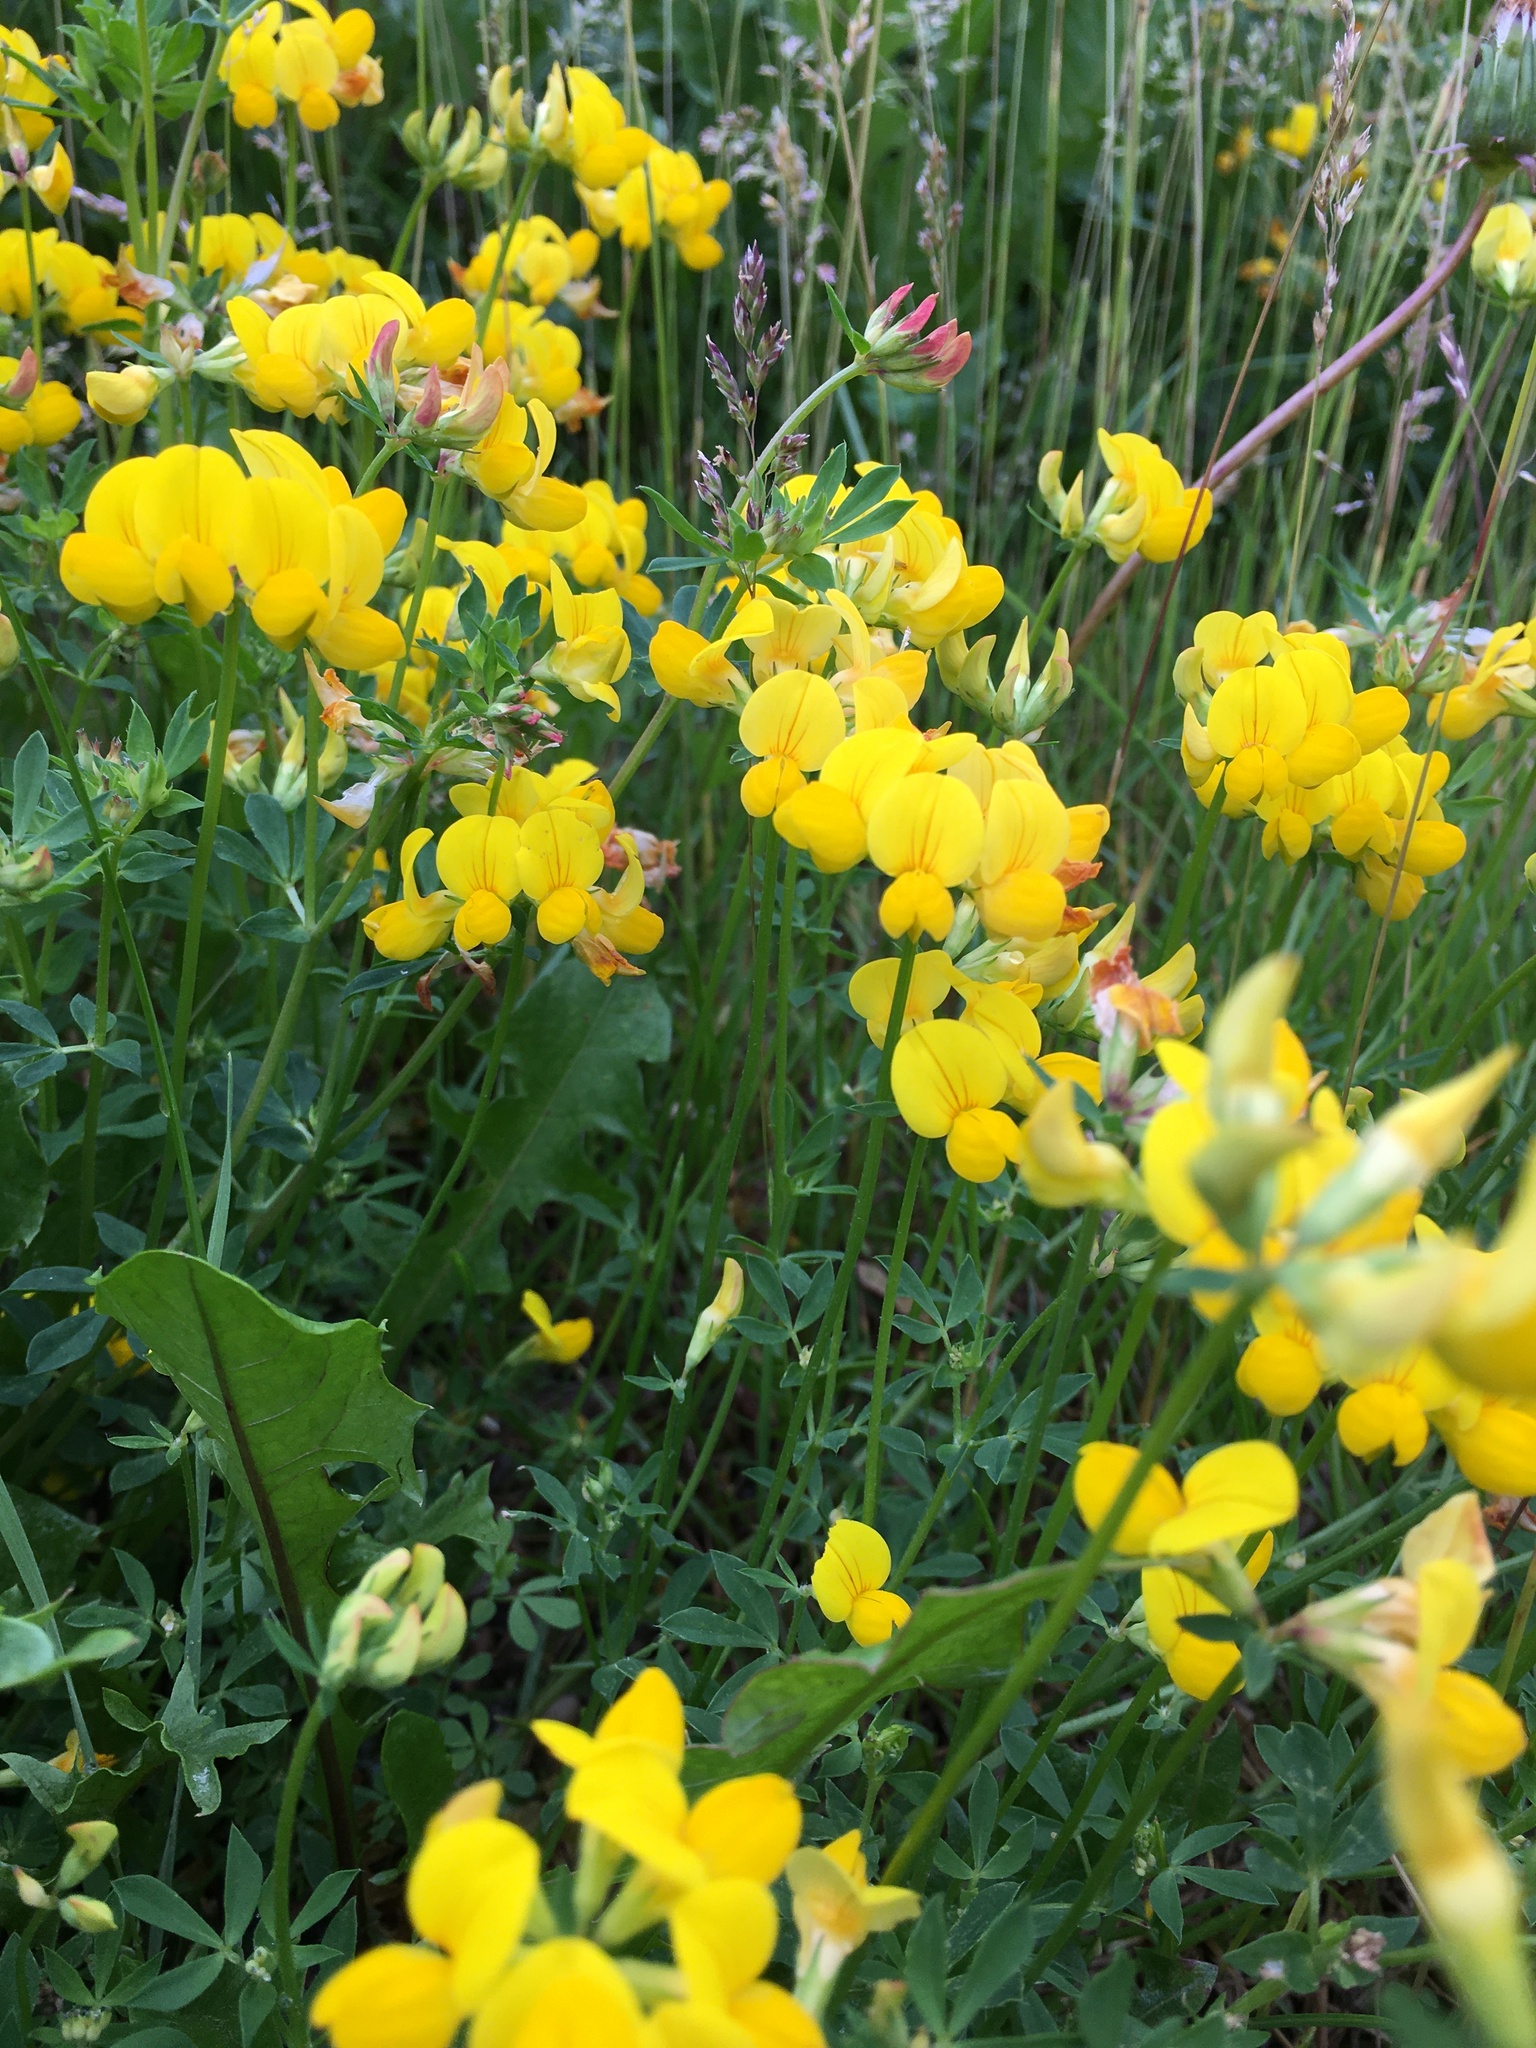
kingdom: Plantae
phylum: Tracheophyta
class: Magnoliopsida
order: Fabales
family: Fabaceae
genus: Lotus
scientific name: Lotus corniculatus
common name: Common bird's-foot-trefoil
